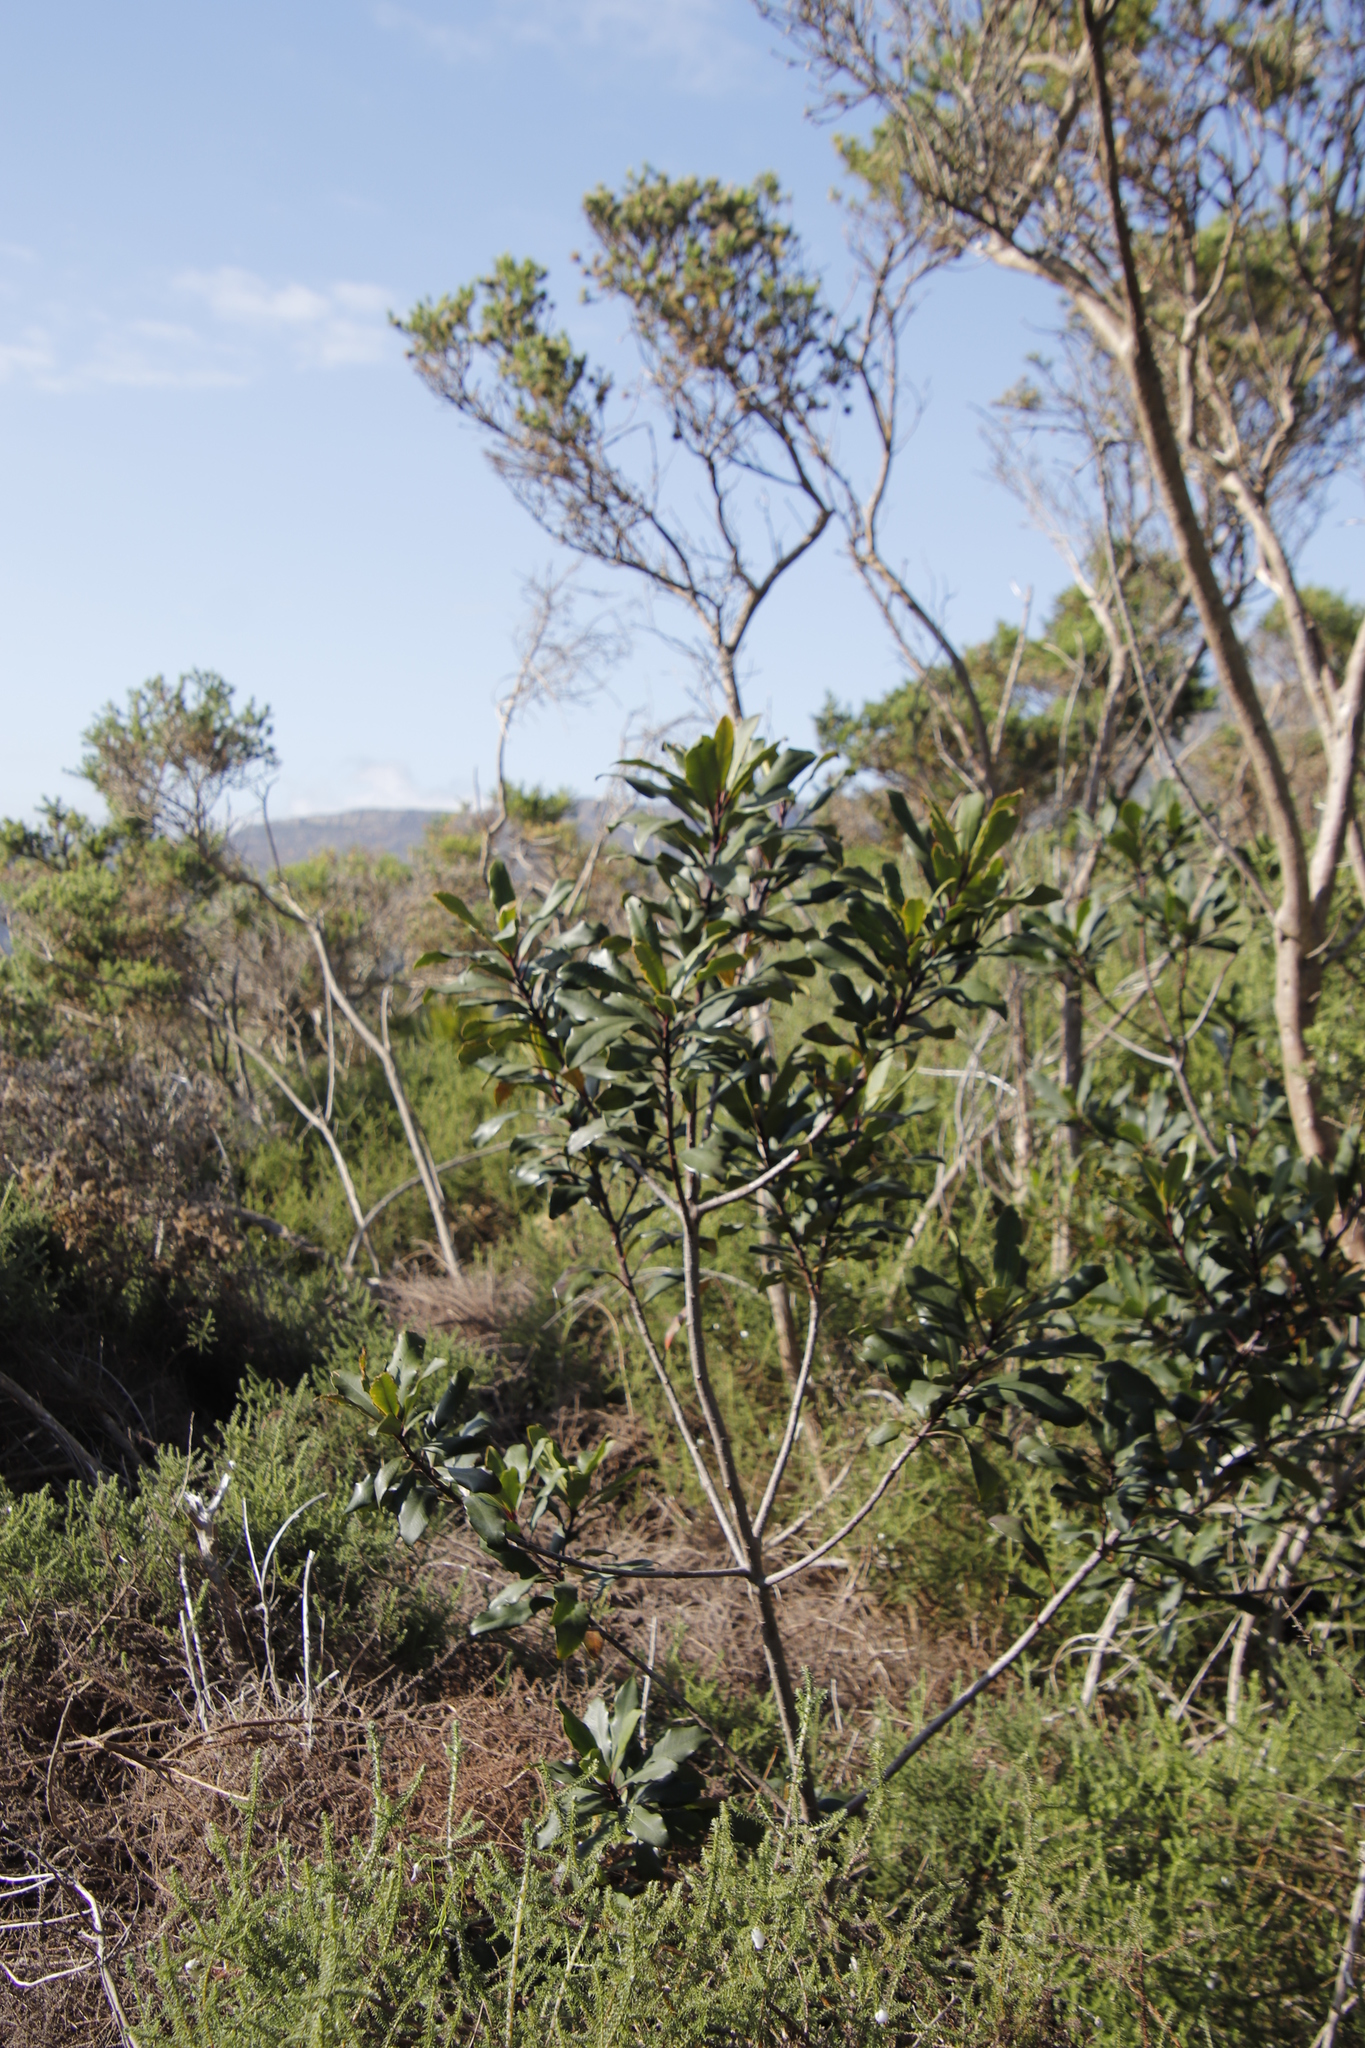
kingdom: Plantae
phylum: Tracheophyta
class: Magnoliopsida
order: Ericales
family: Primulaceae
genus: Myrsine
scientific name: Myrsine melanophloeos
